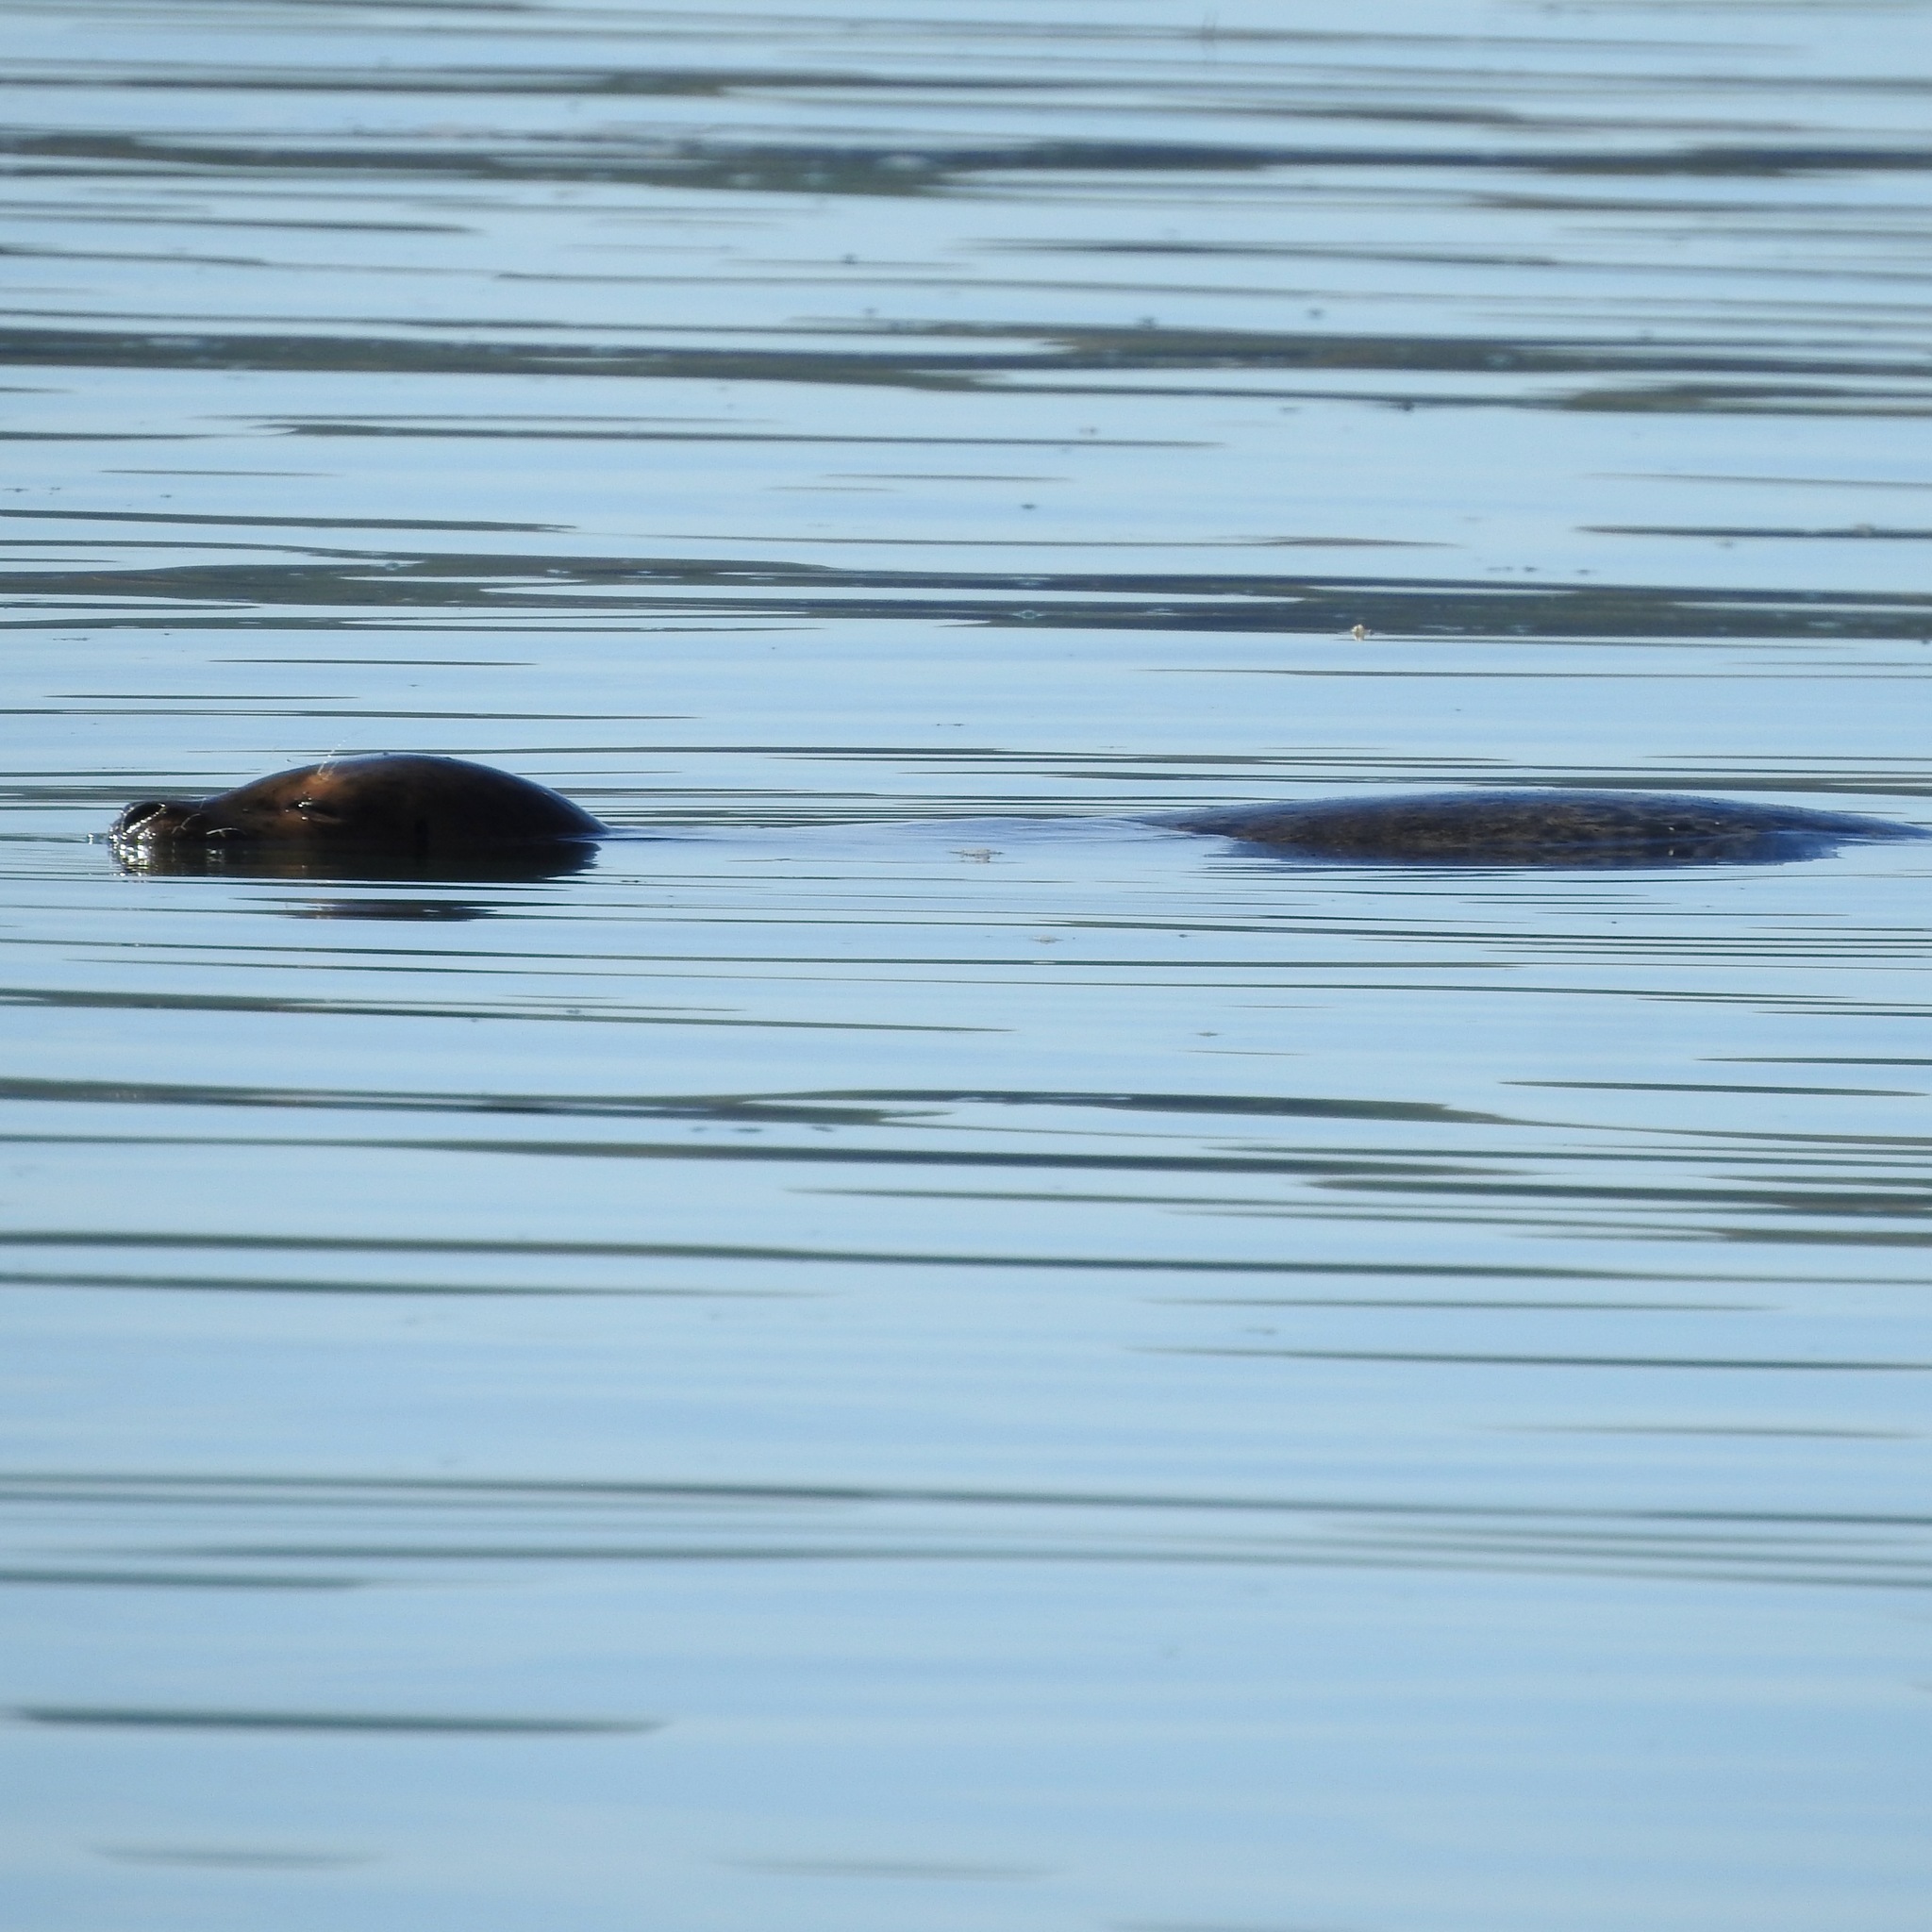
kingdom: Animalia
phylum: Chordata
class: Mammalia
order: Carnivora
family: Phocidae
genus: Phoca
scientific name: Phoca vitulina
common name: Harbor seal
